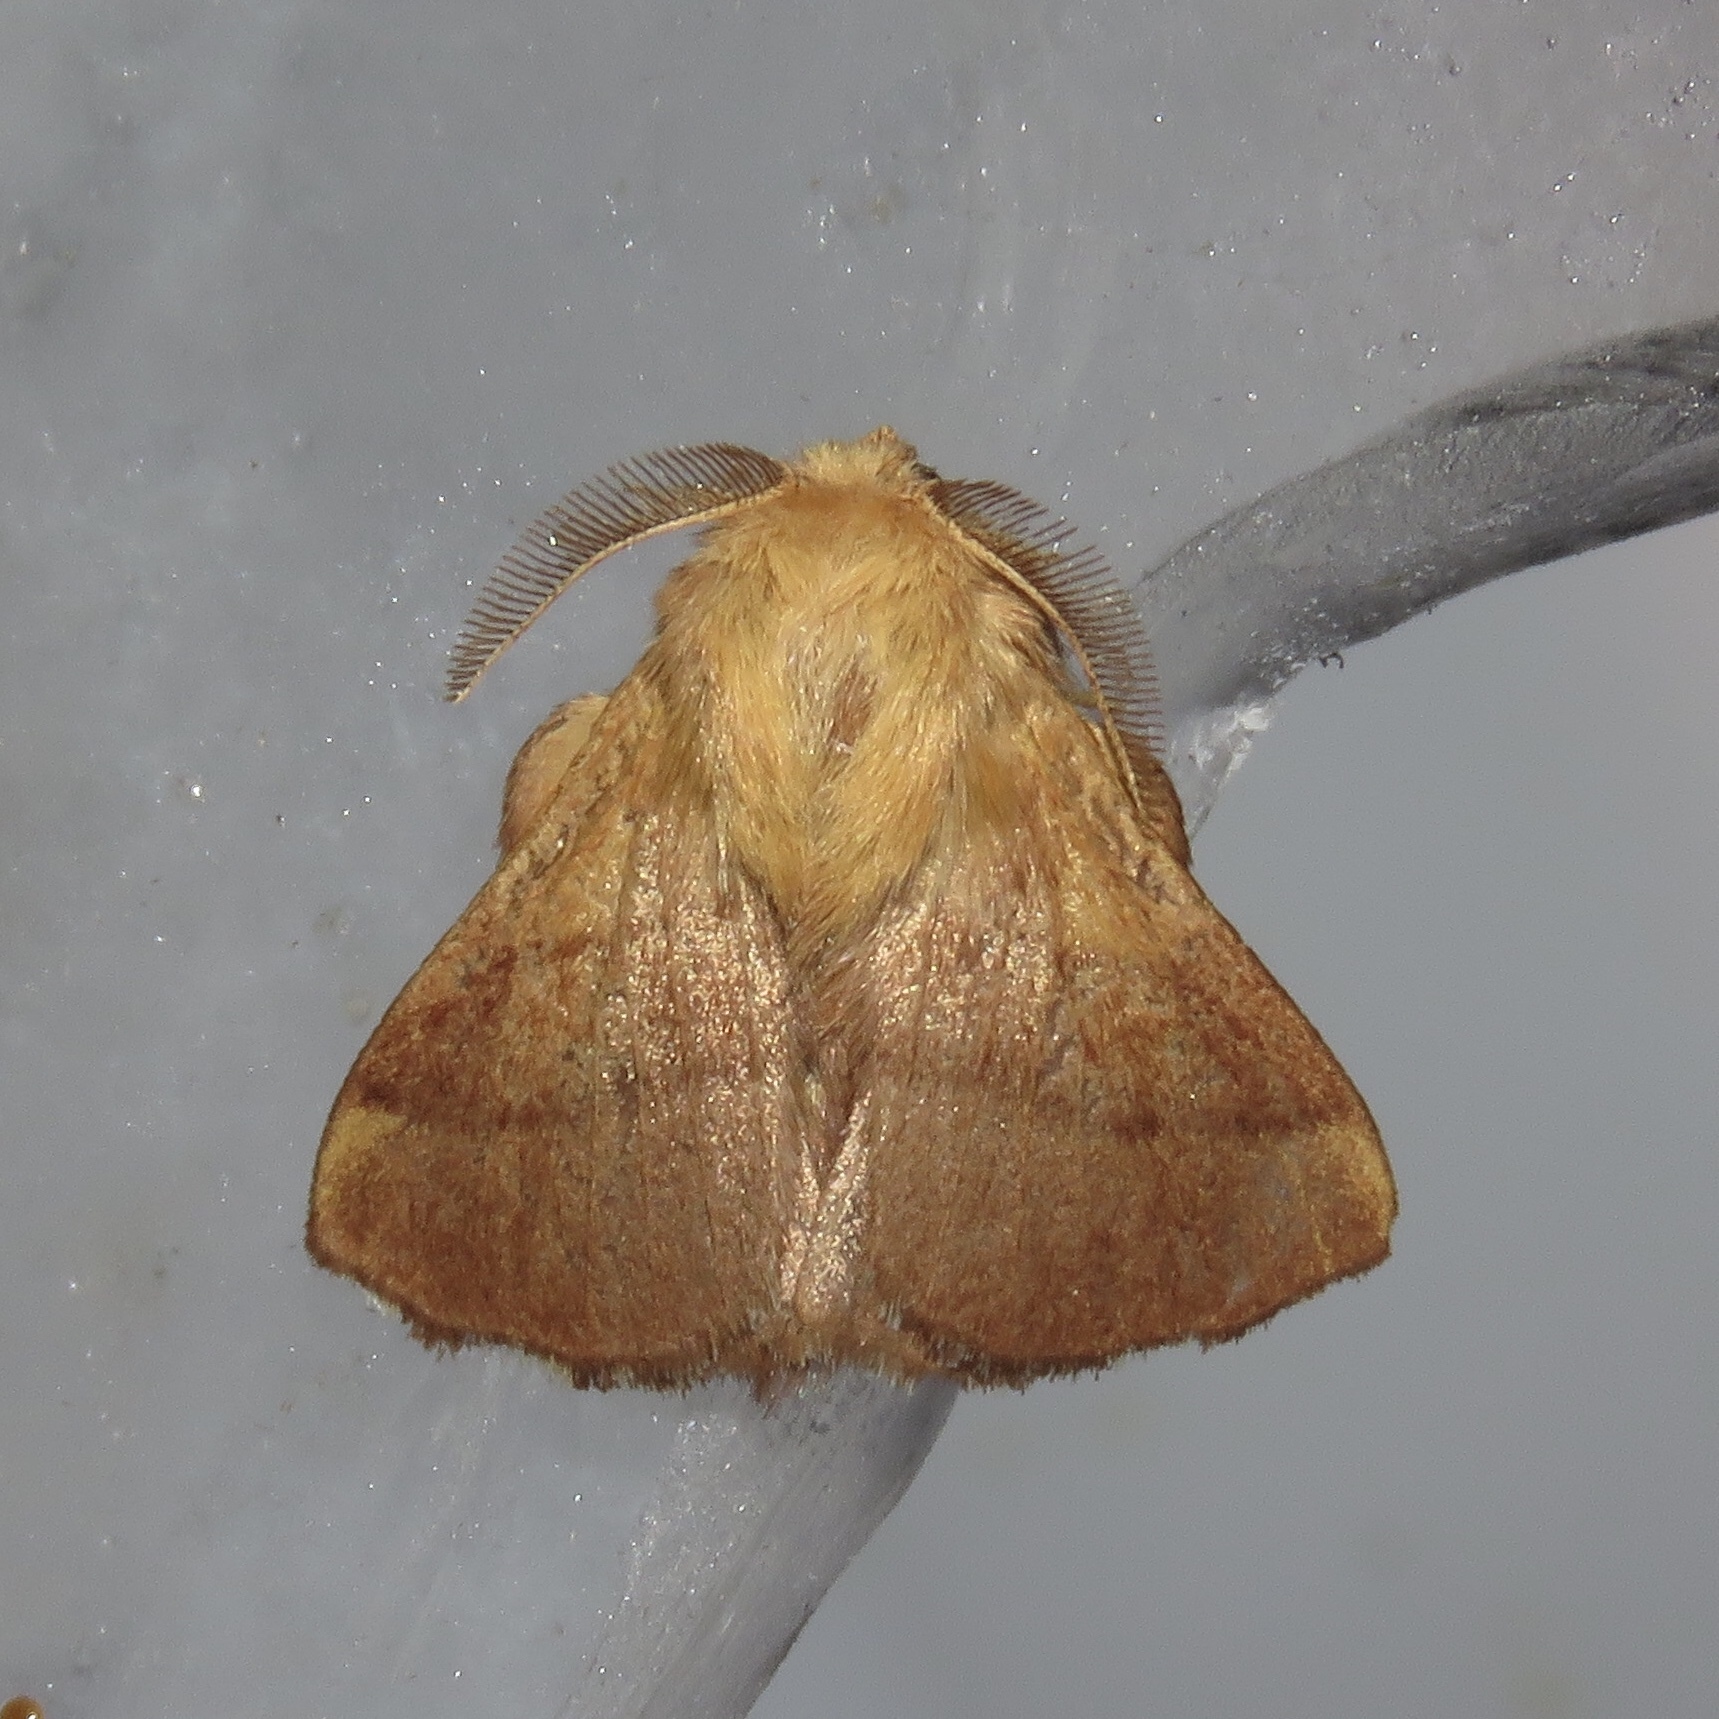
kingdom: Animalia
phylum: Arthropoda
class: Insecta
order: Lepidoptera
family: Lasiocampidae
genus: Malacosoma
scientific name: Malacosoma disstria
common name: Forest tent caterpillar
